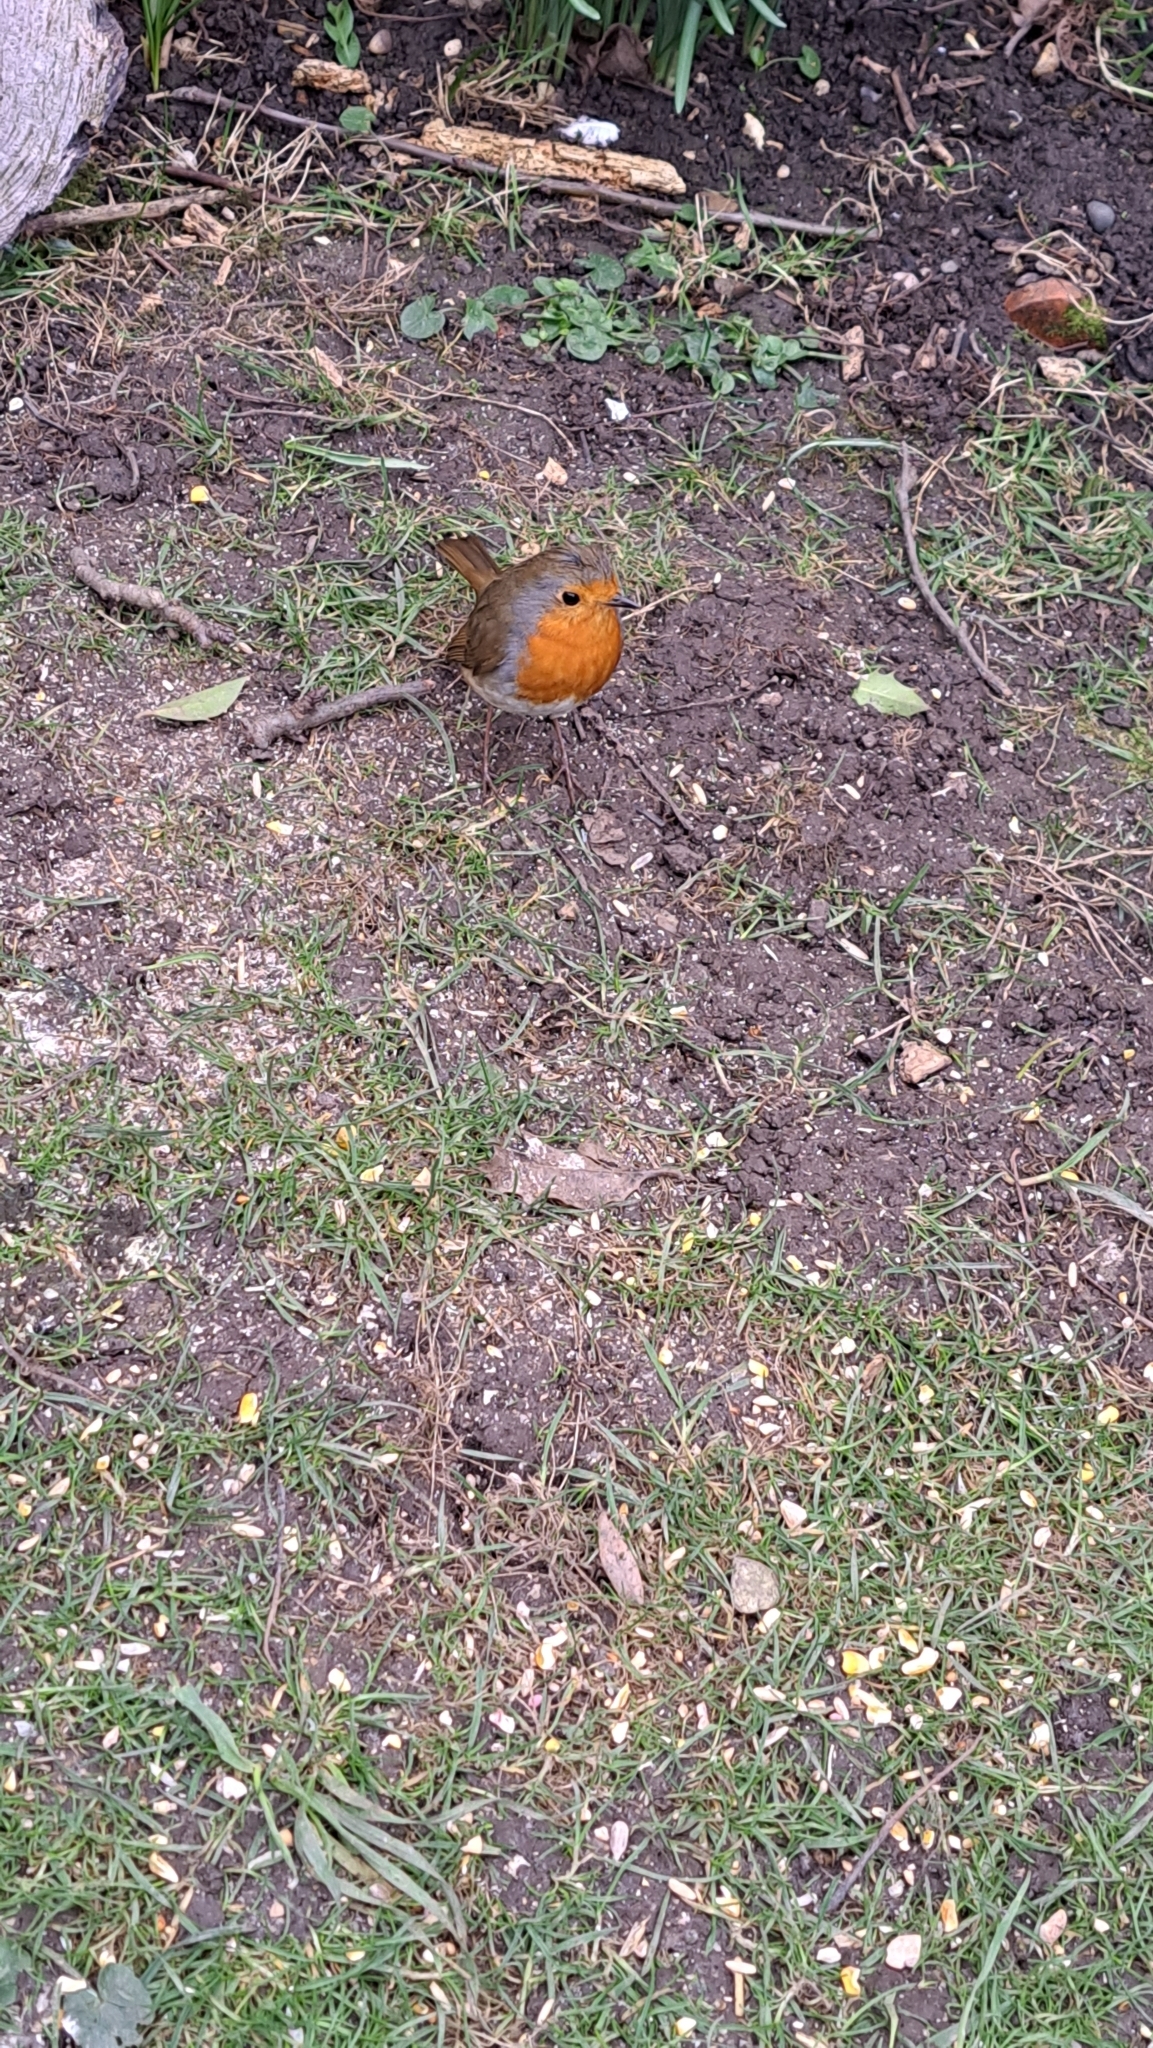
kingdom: Animalia
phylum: Chordata
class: Aves
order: Passeriformes
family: Muscicapidae
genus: Erithacus
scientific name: Erithacus rubecula
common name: European robin
